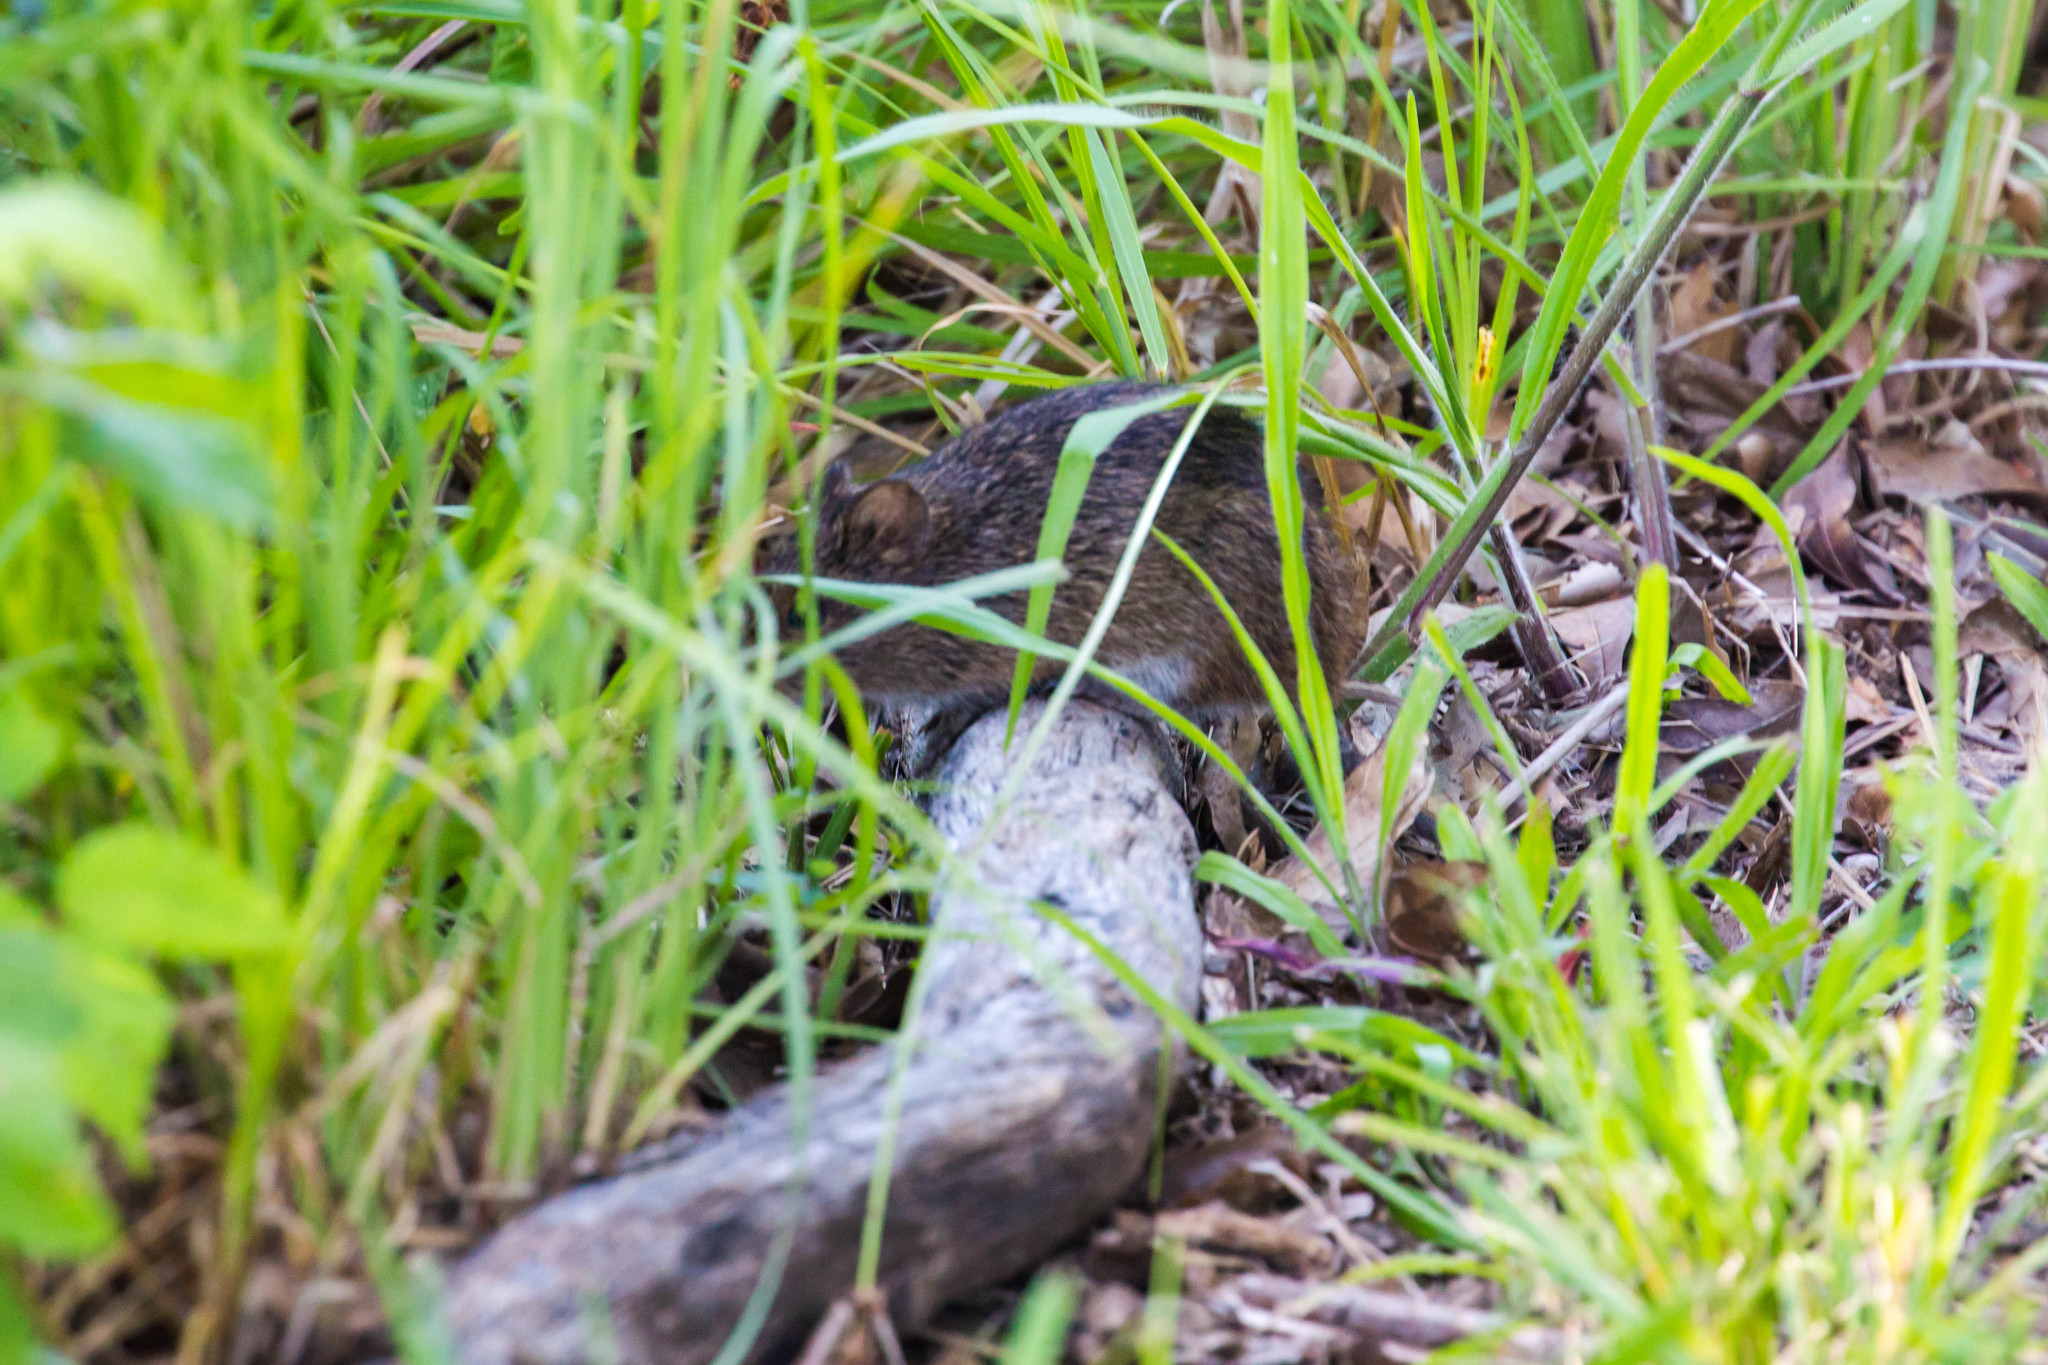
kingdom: Animalia
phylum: Chordata
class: Mammalia
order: Rodentia
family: Cricetidae
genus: Sigmodon
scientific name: Sigmodon hispidus
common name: Hispid cotton rat
